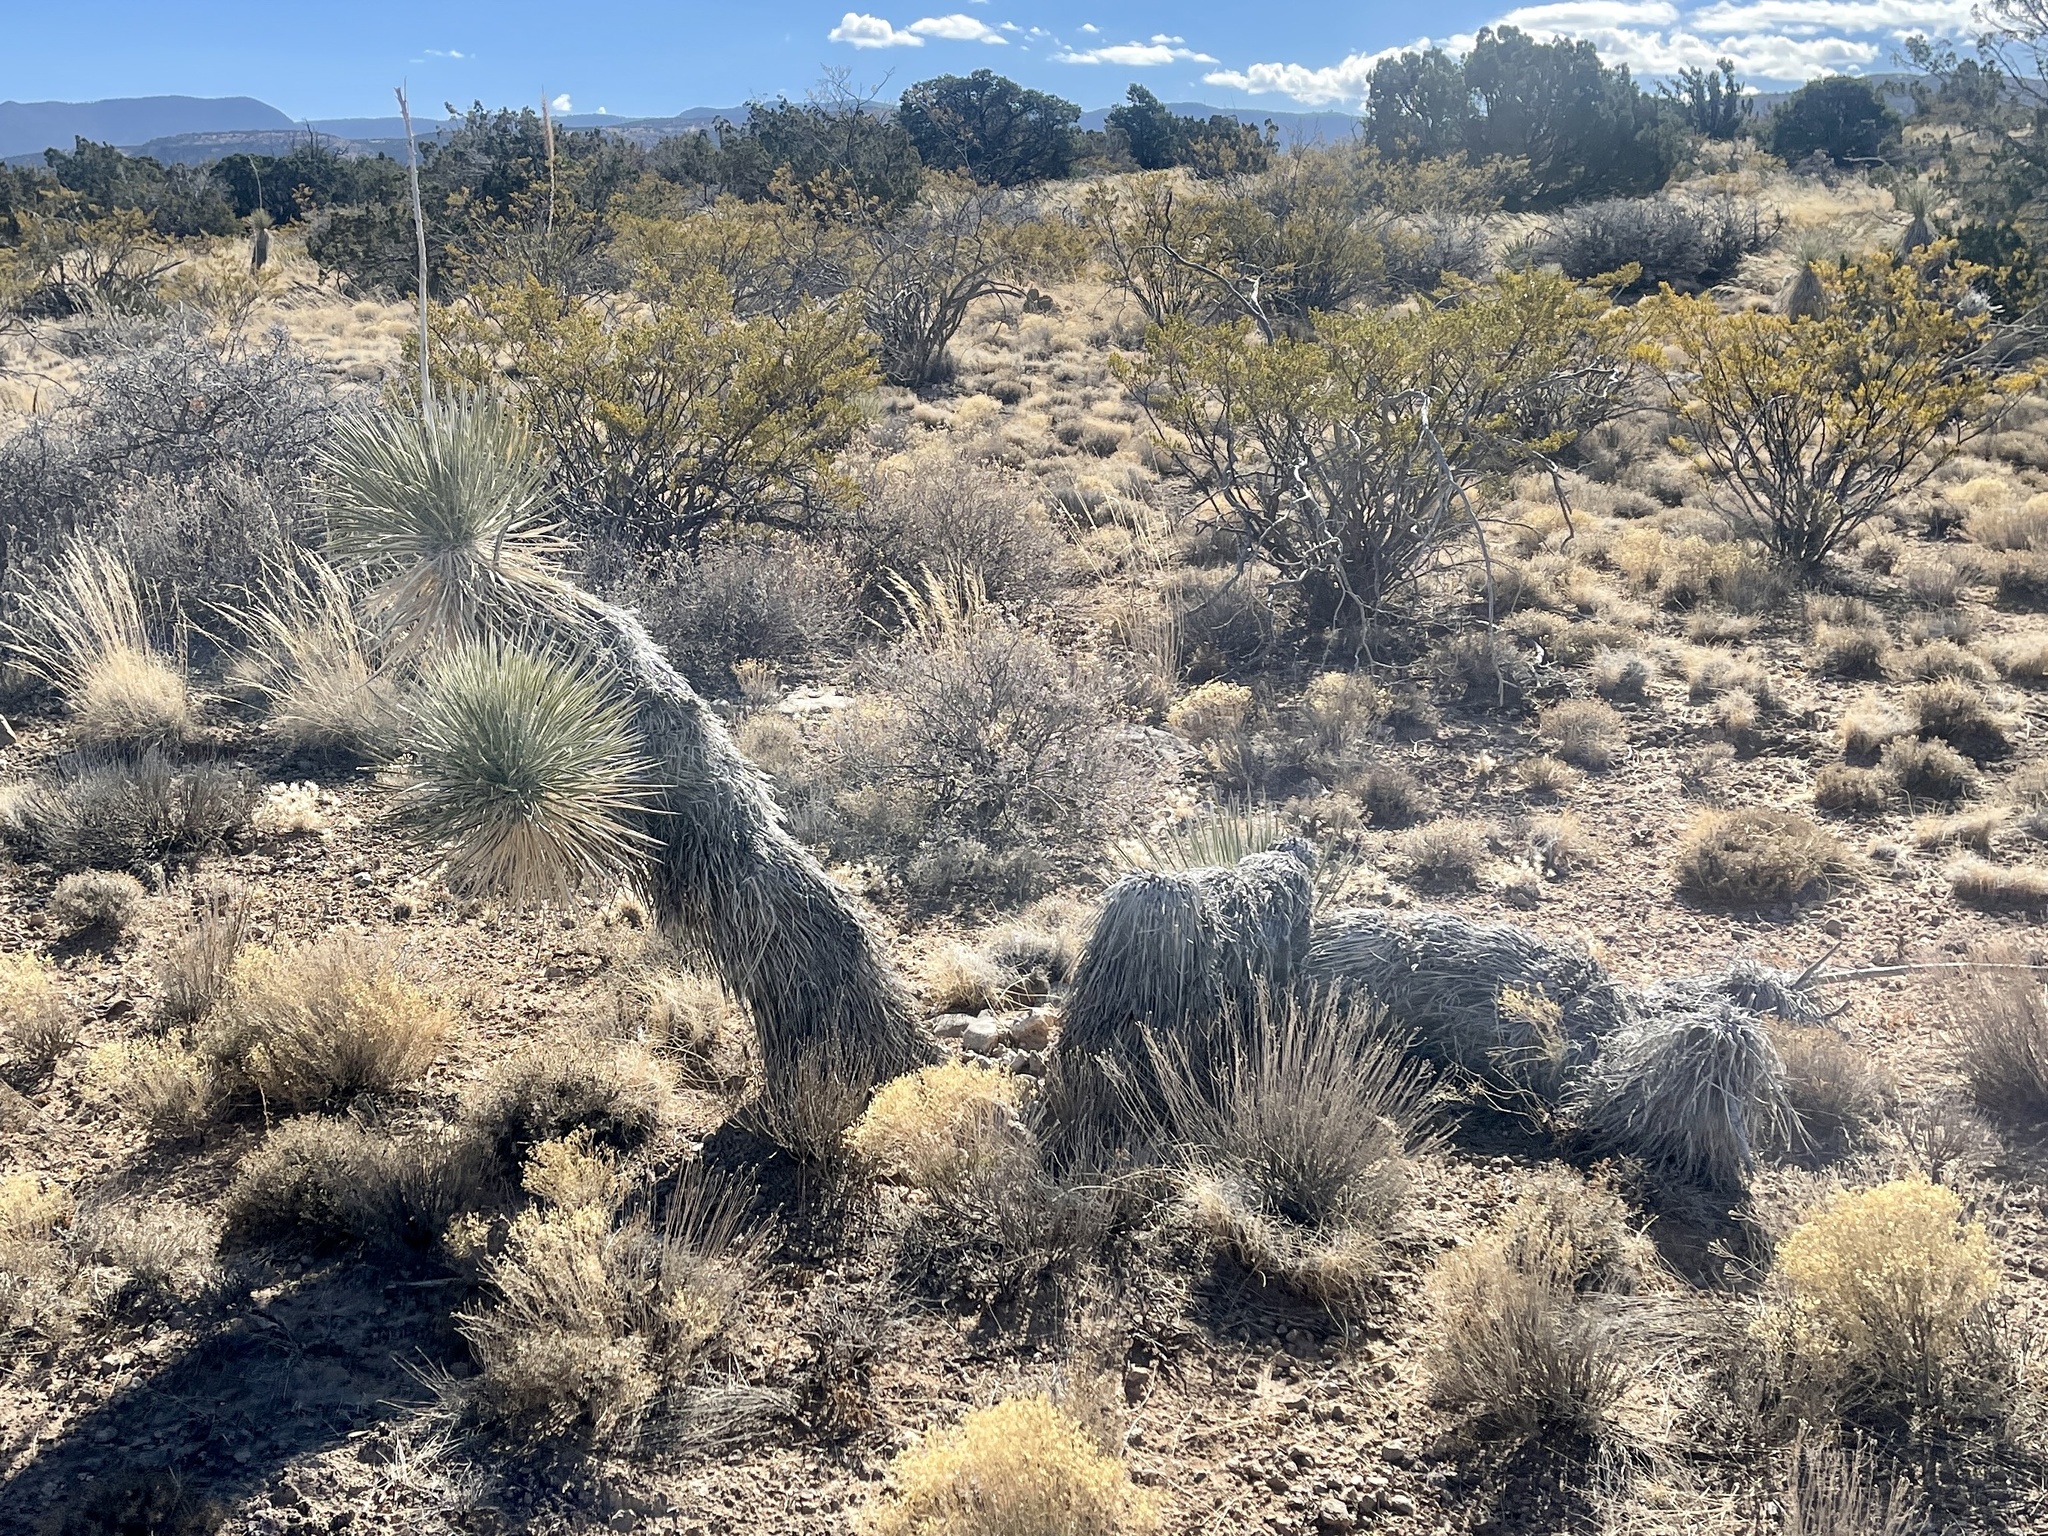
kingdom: Plantae
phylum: Tracheophyta
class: Liliopsida
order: Asparagales
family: Asparagaceae
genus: Yucca
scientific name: Yucca elata
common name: Palmella
